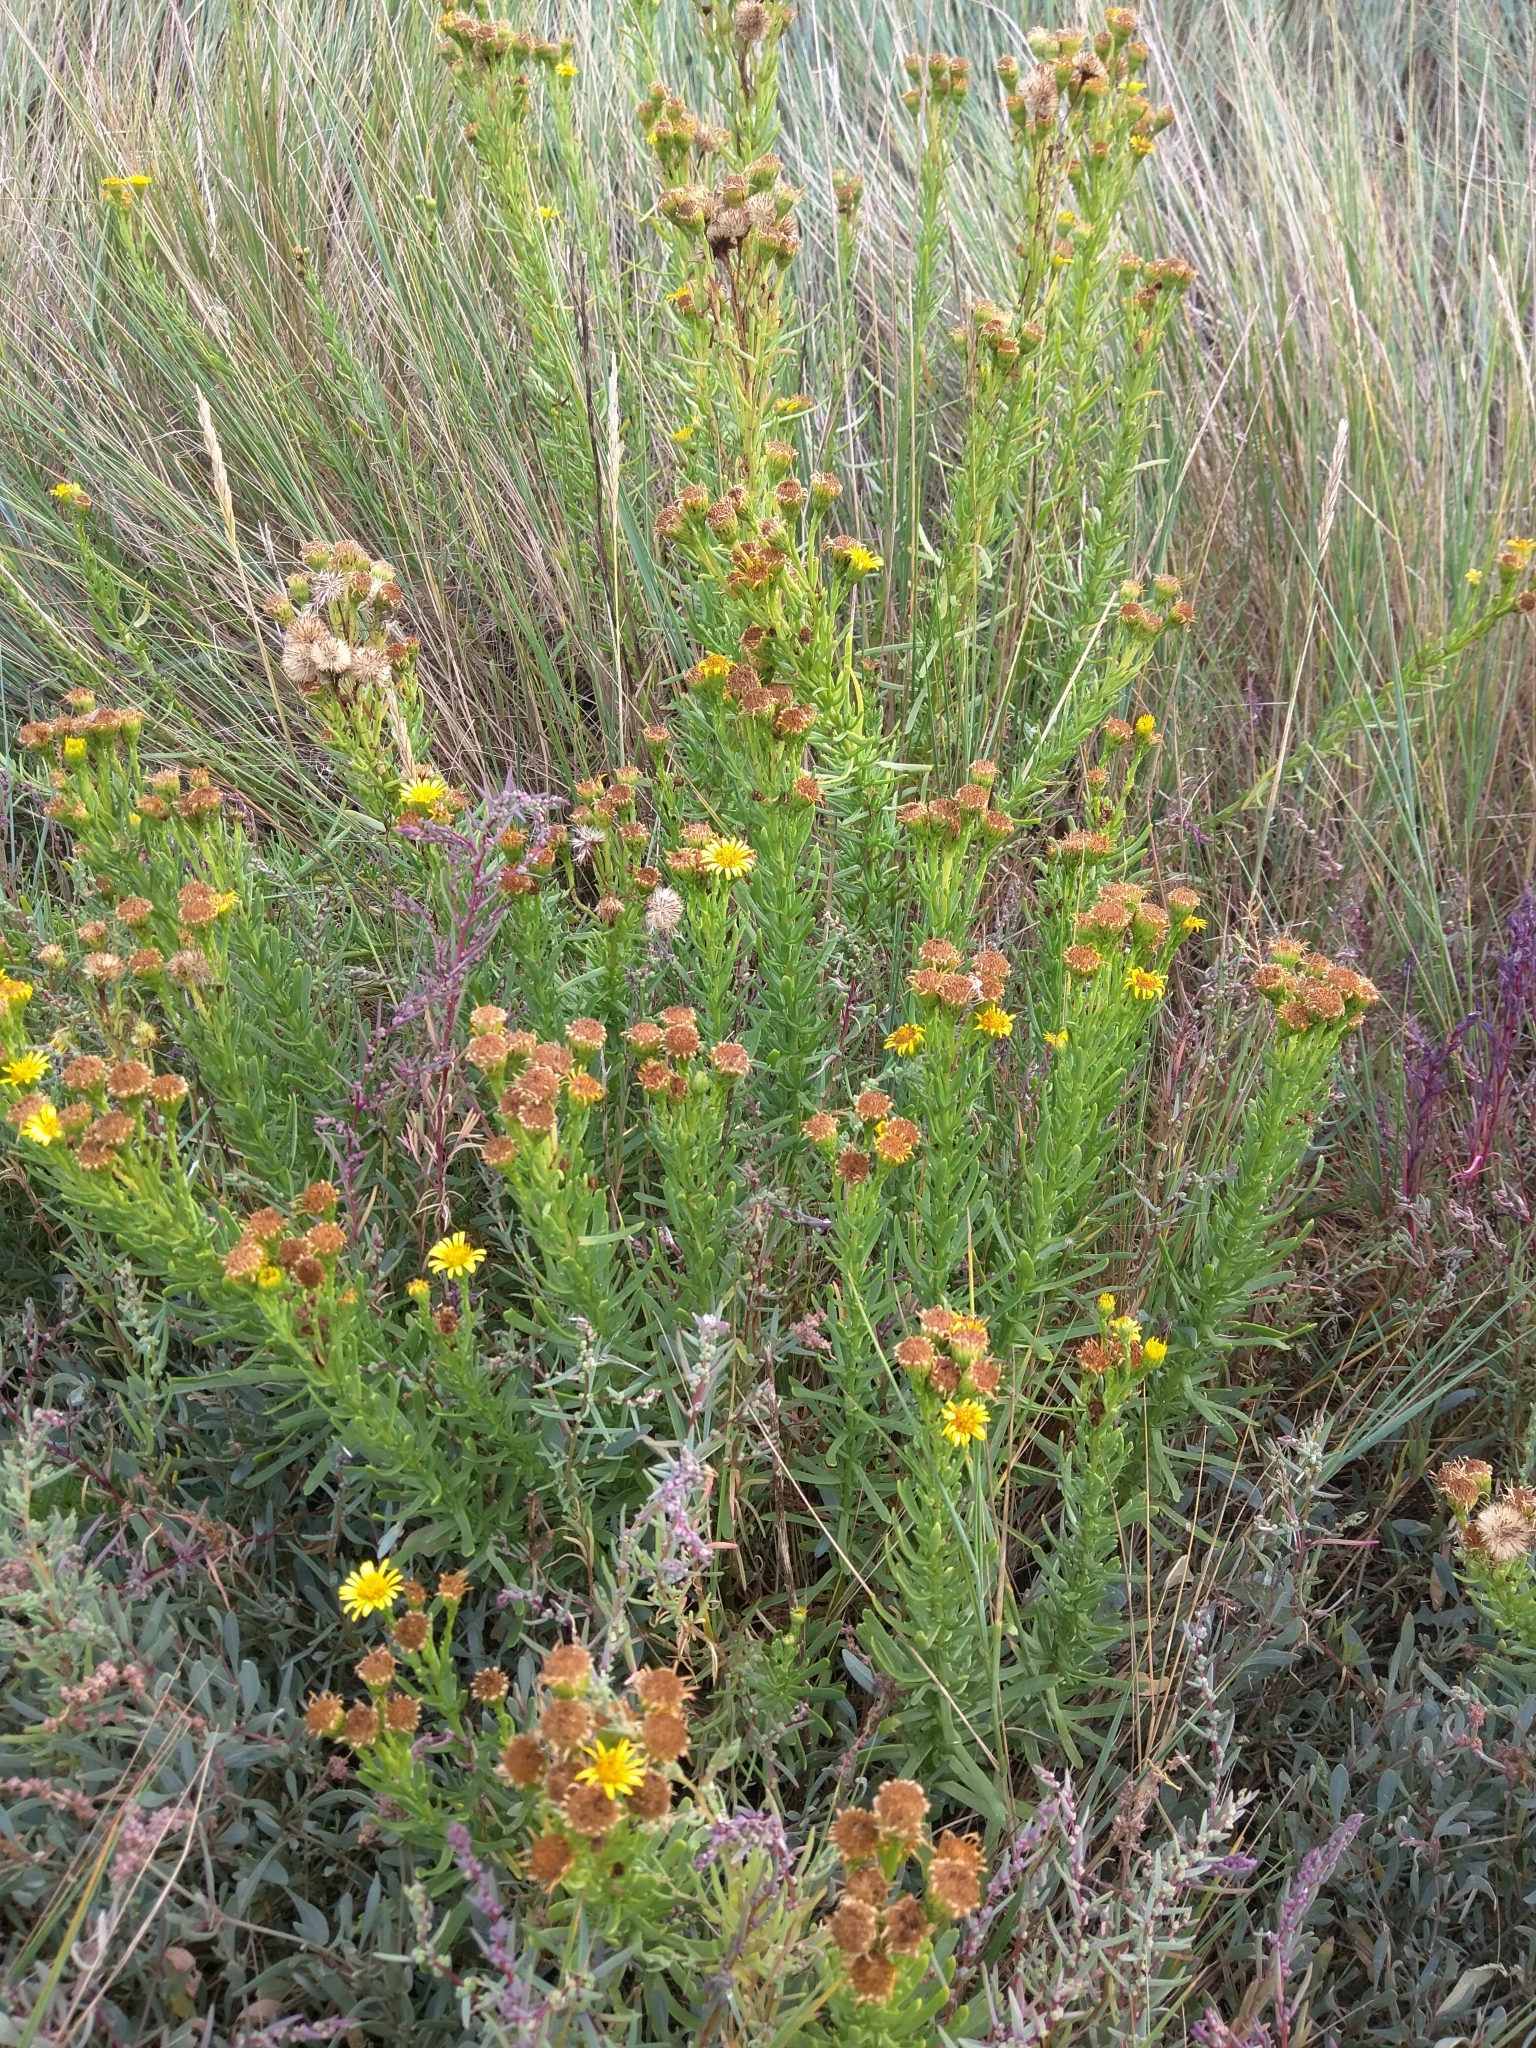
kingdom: Plantae
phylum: Tracheophyta
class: Magnoliopsida
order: Asterales
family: Asteraceae
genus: Limbarda
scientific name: Limbarda crithmoides
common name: Golden samphire
